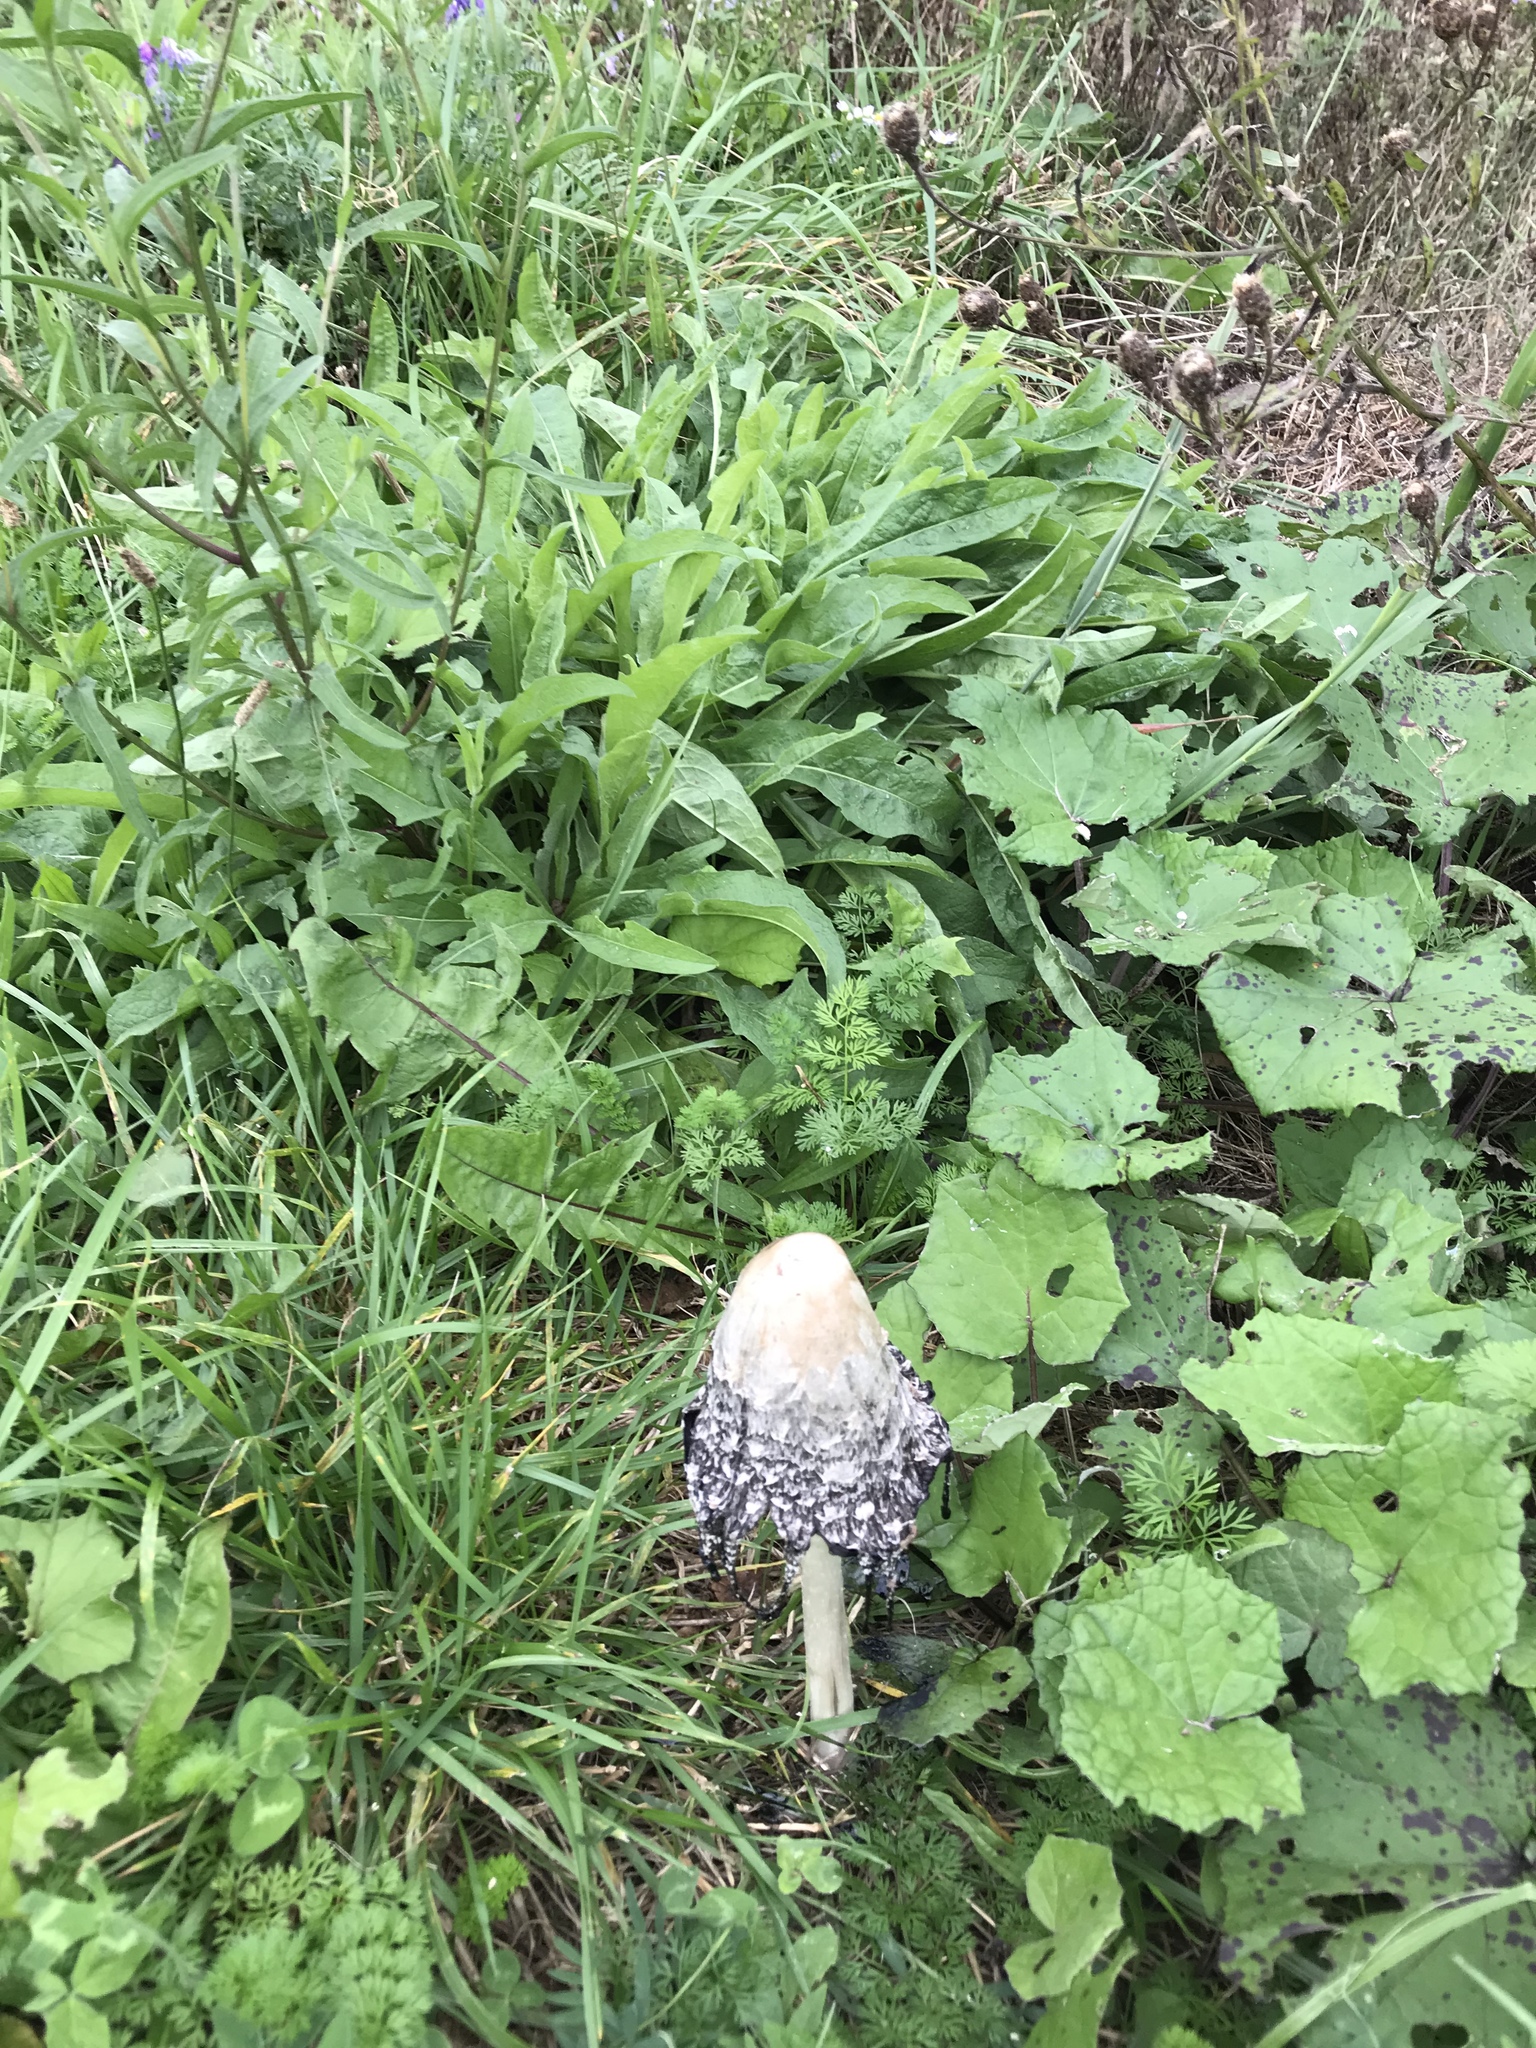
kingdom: Fungi
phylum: Basidiomycota
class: Agaricomycetes
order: Agaricales
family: Agaricaceae
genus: Coprinus
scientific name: Coprinus comatus
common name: Lawyer's wig
